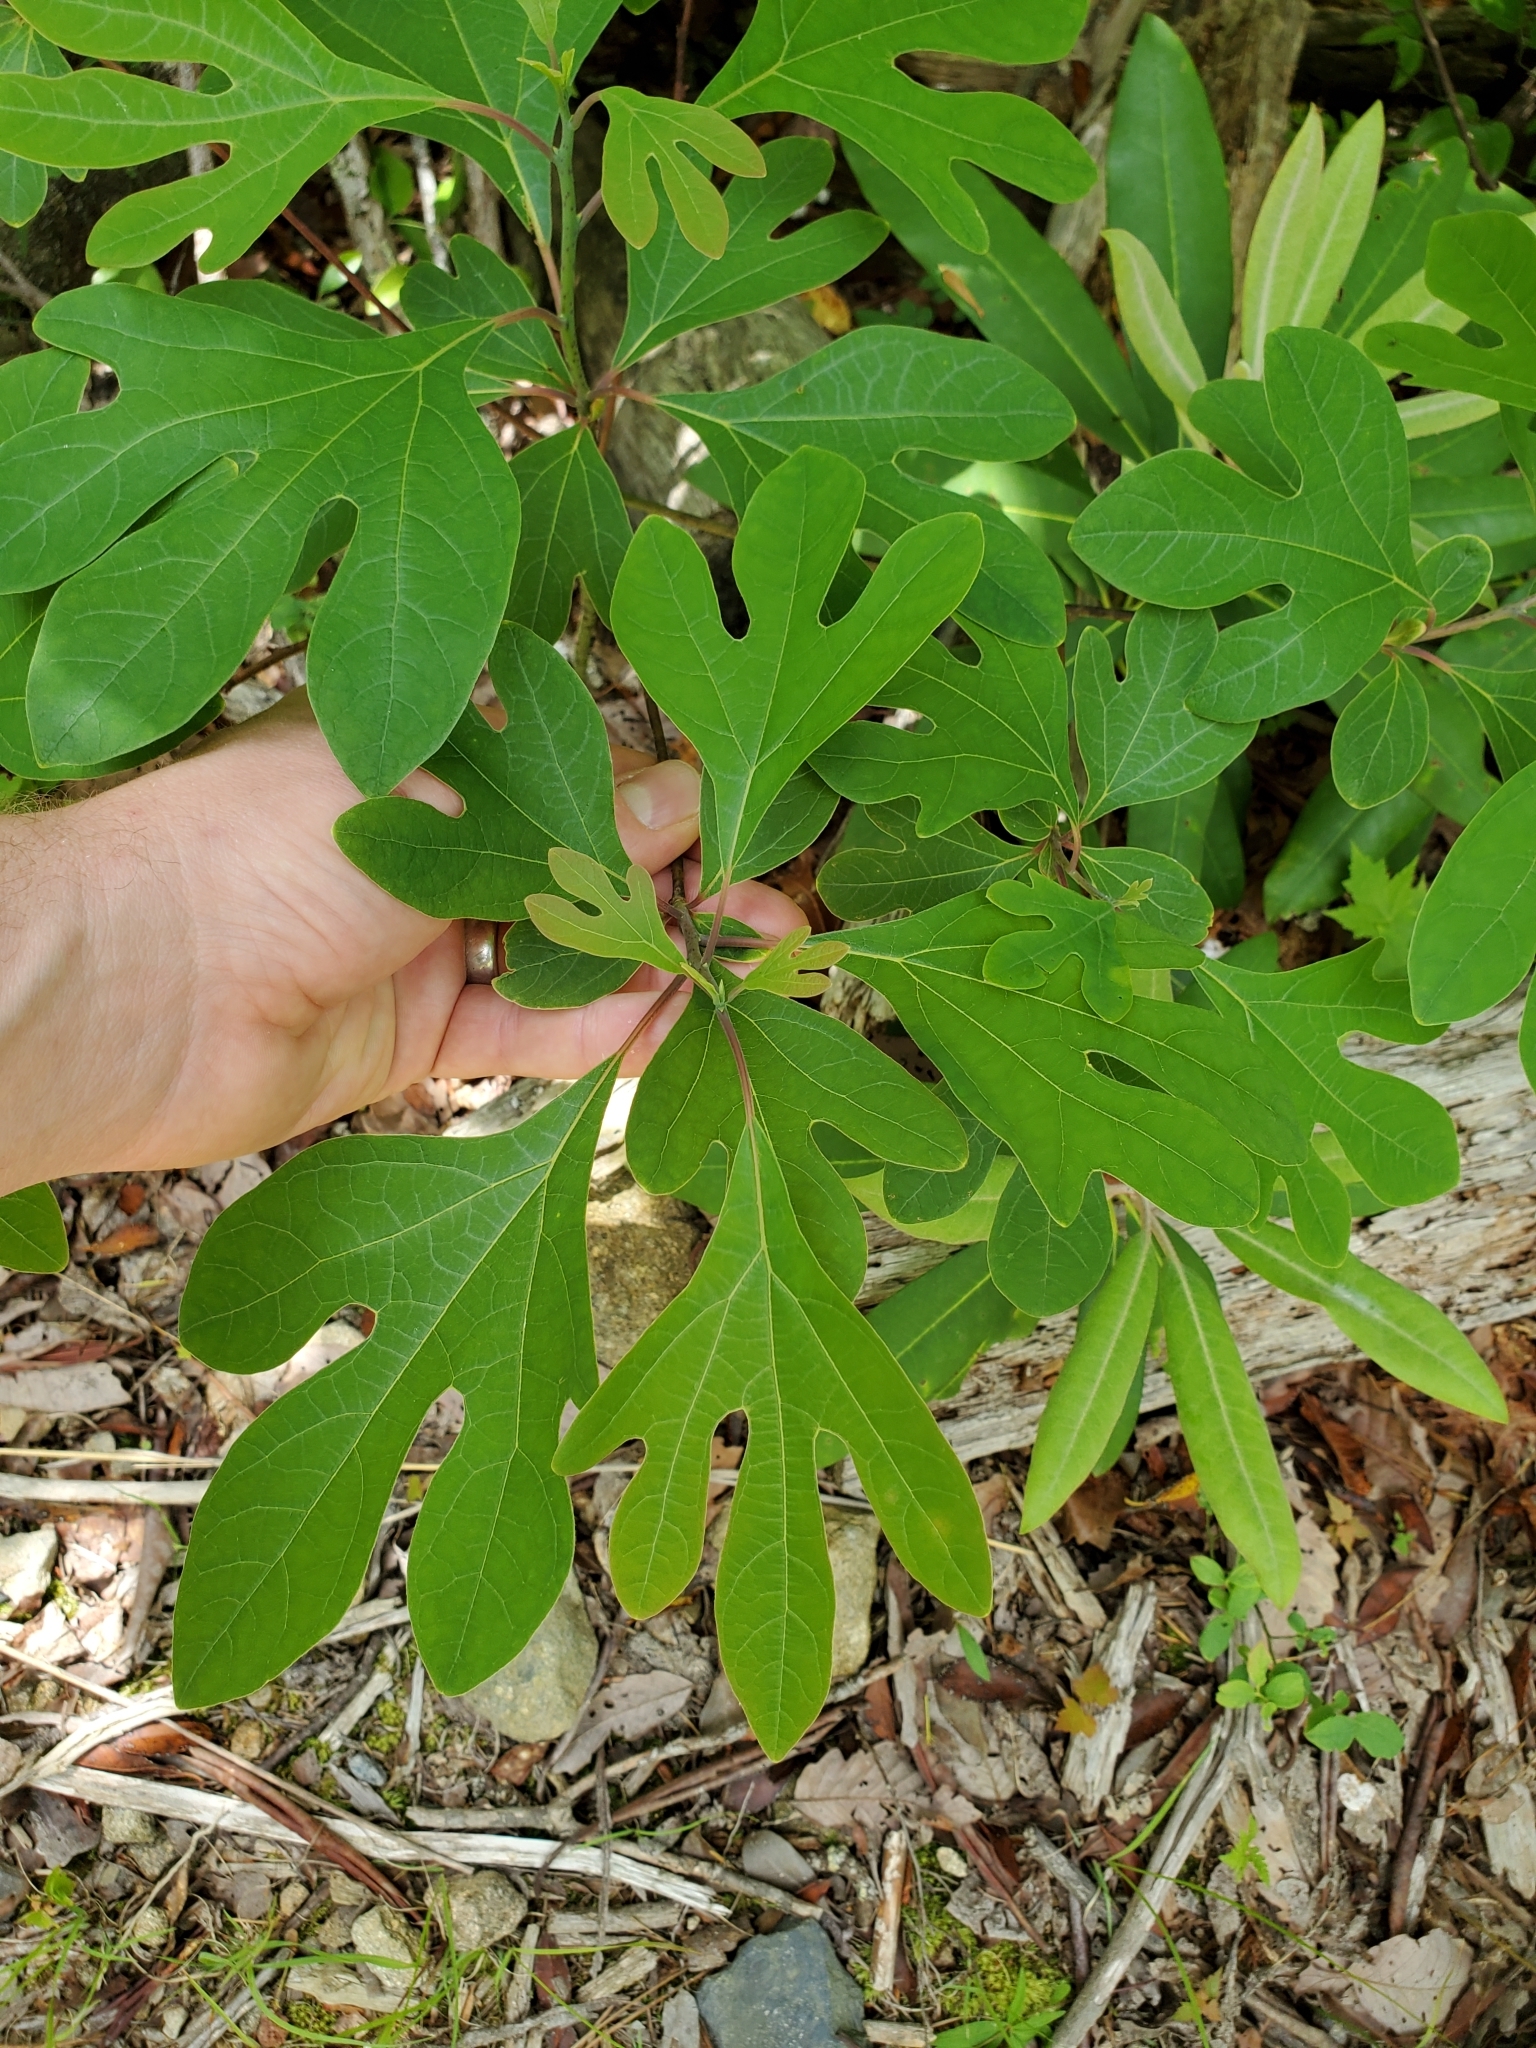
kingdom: Plantae
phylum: Tracheophyta
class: Magnoliopsida
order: Laurales
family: Lauraceae
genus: Sassafras
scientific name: Sassafras albidum
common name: Sassafras
